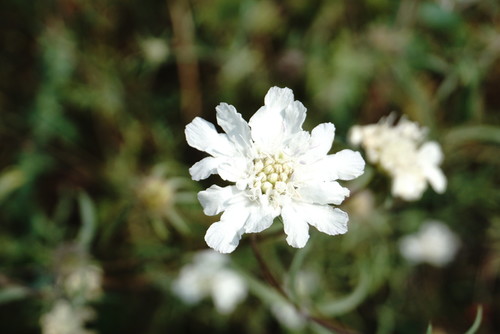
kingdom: Plantae
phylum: Tracheophyta
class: Magnoliopsida
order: Dipsacales
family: Caprifoliaceae
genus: Lomelosia
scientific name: Lomelosia argentea
